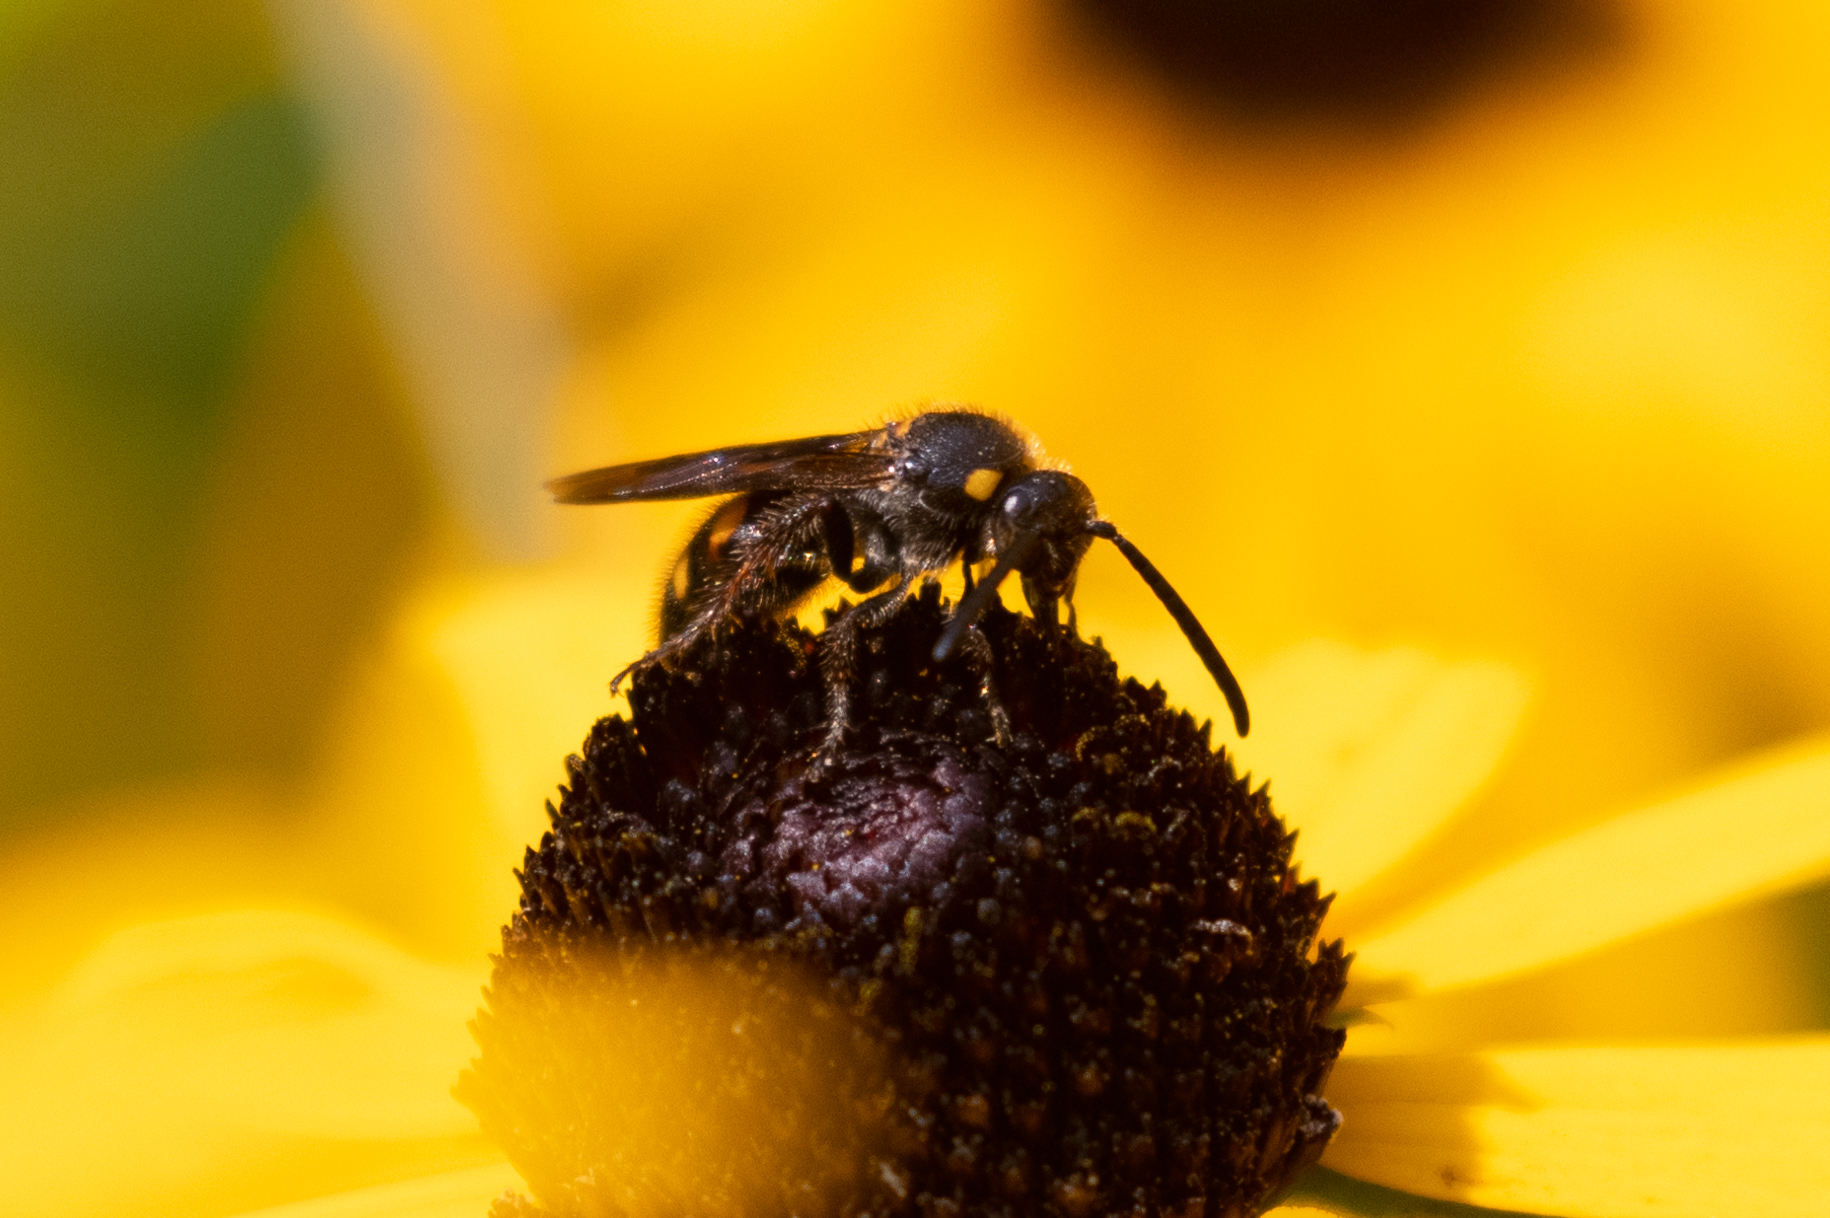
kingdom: Animalia
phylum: Arthropoda
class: Insecta
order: Hymenoptera
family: Scoliidae
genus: Scolia
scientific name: Scolia nobilitata
